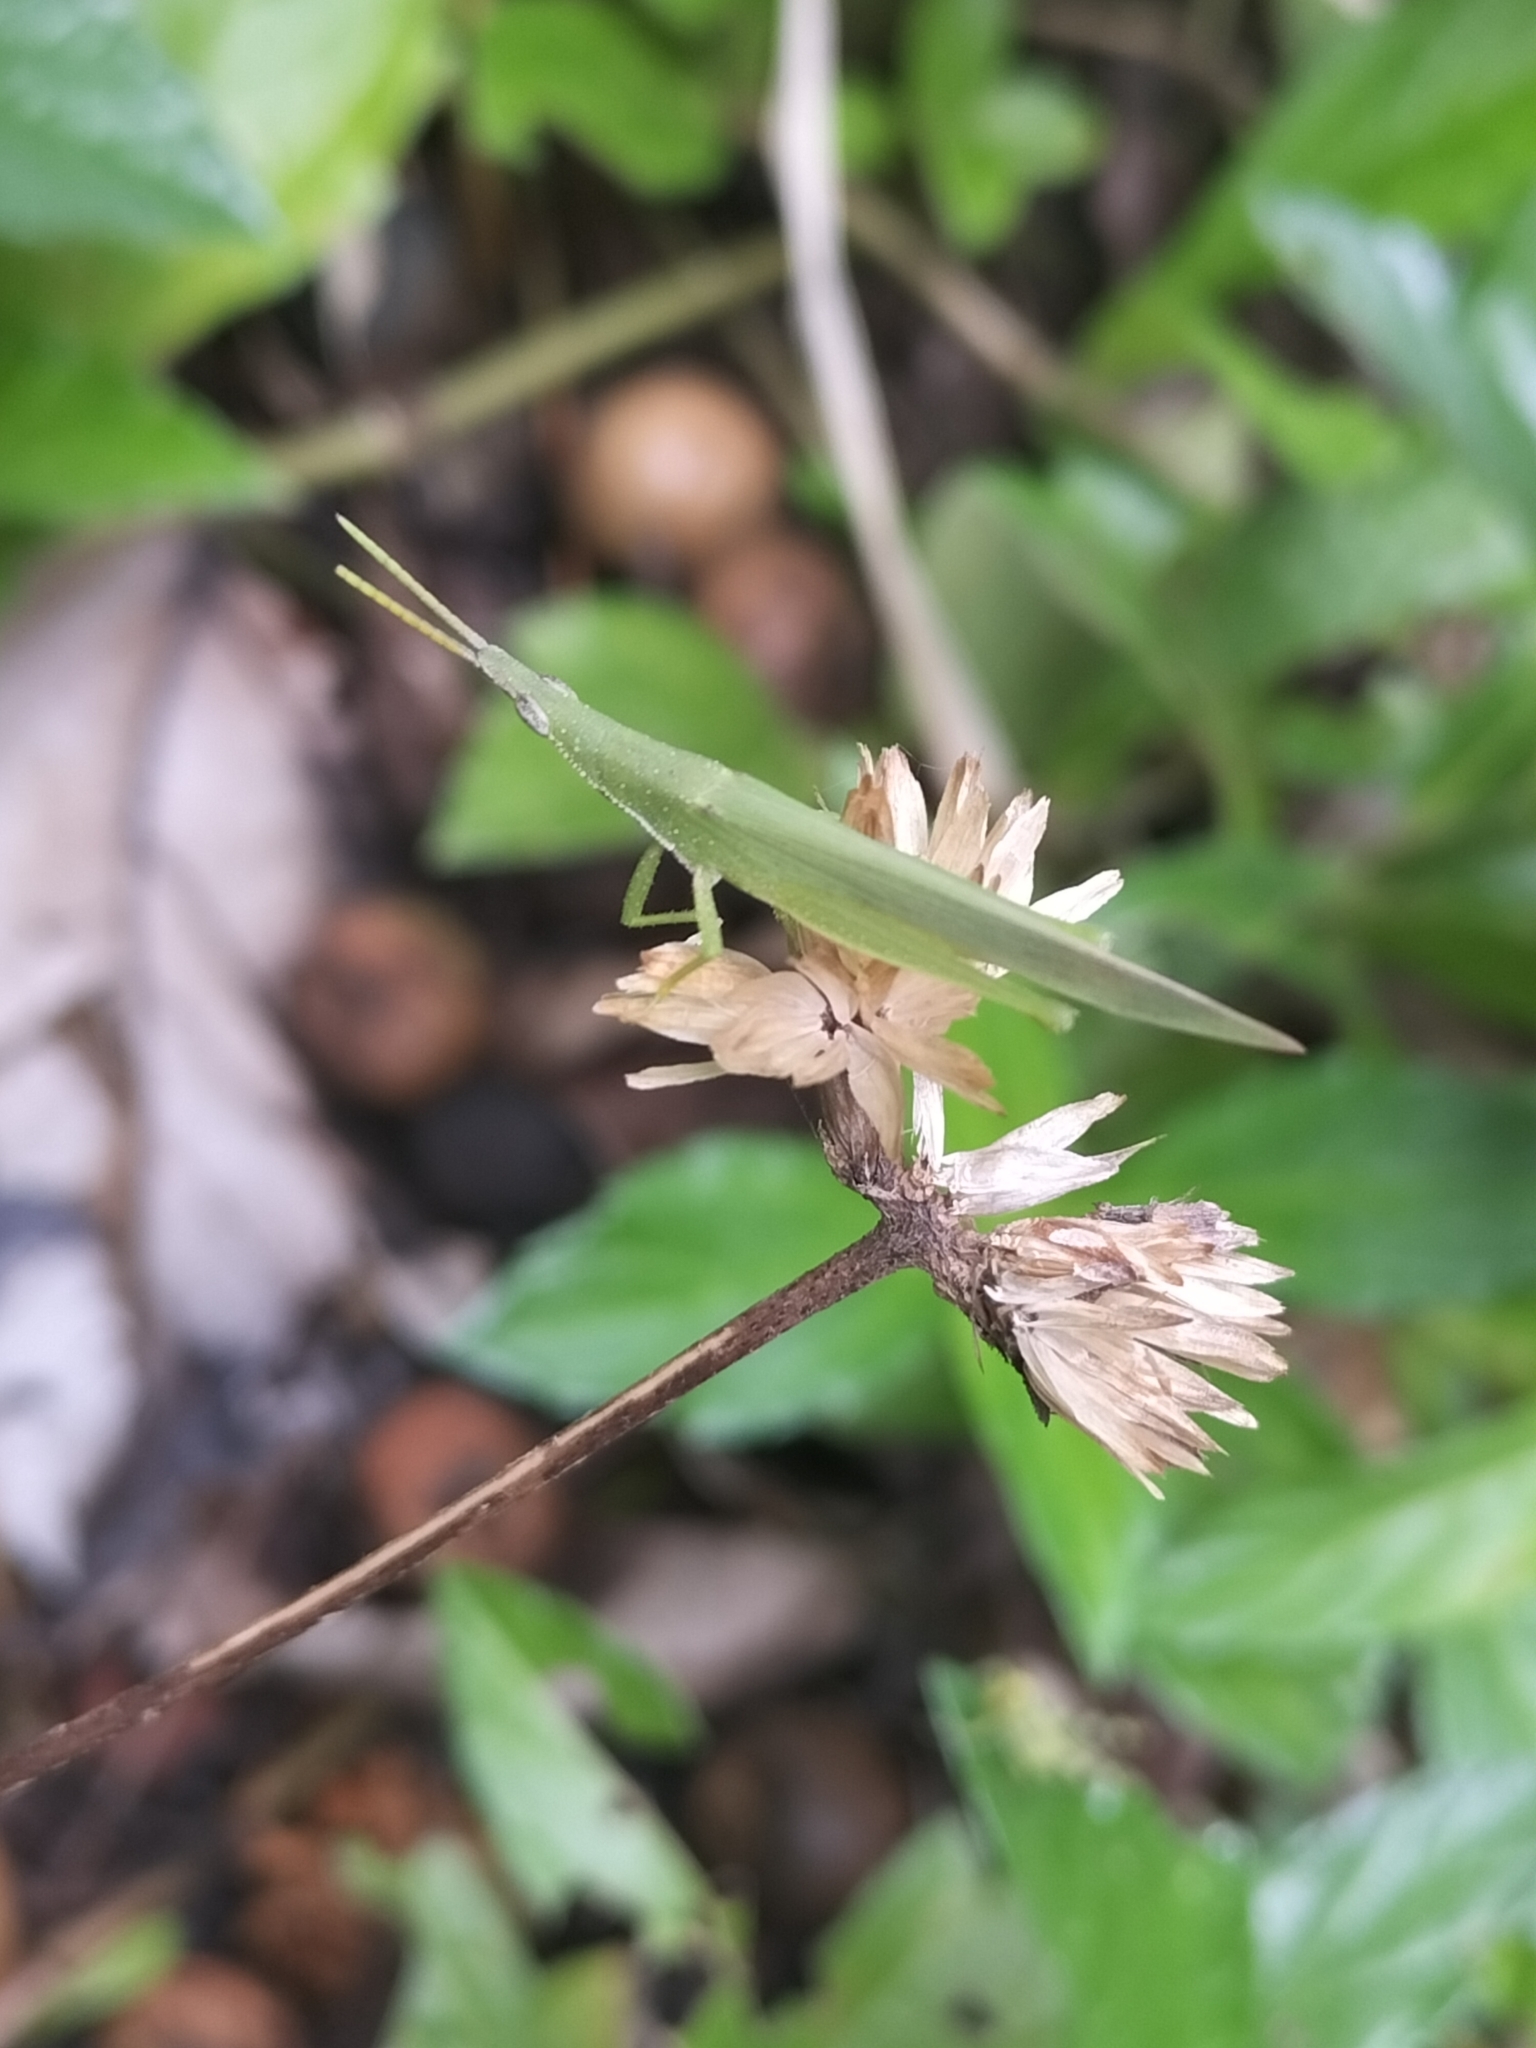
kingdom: Animalia
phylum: Arthropoda
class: Insecta
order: Orthoptera
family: Pyrgomorphidae
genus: Atractomorpha
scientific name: Atractomorpha similis
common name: Northern grass pyrgomorph
